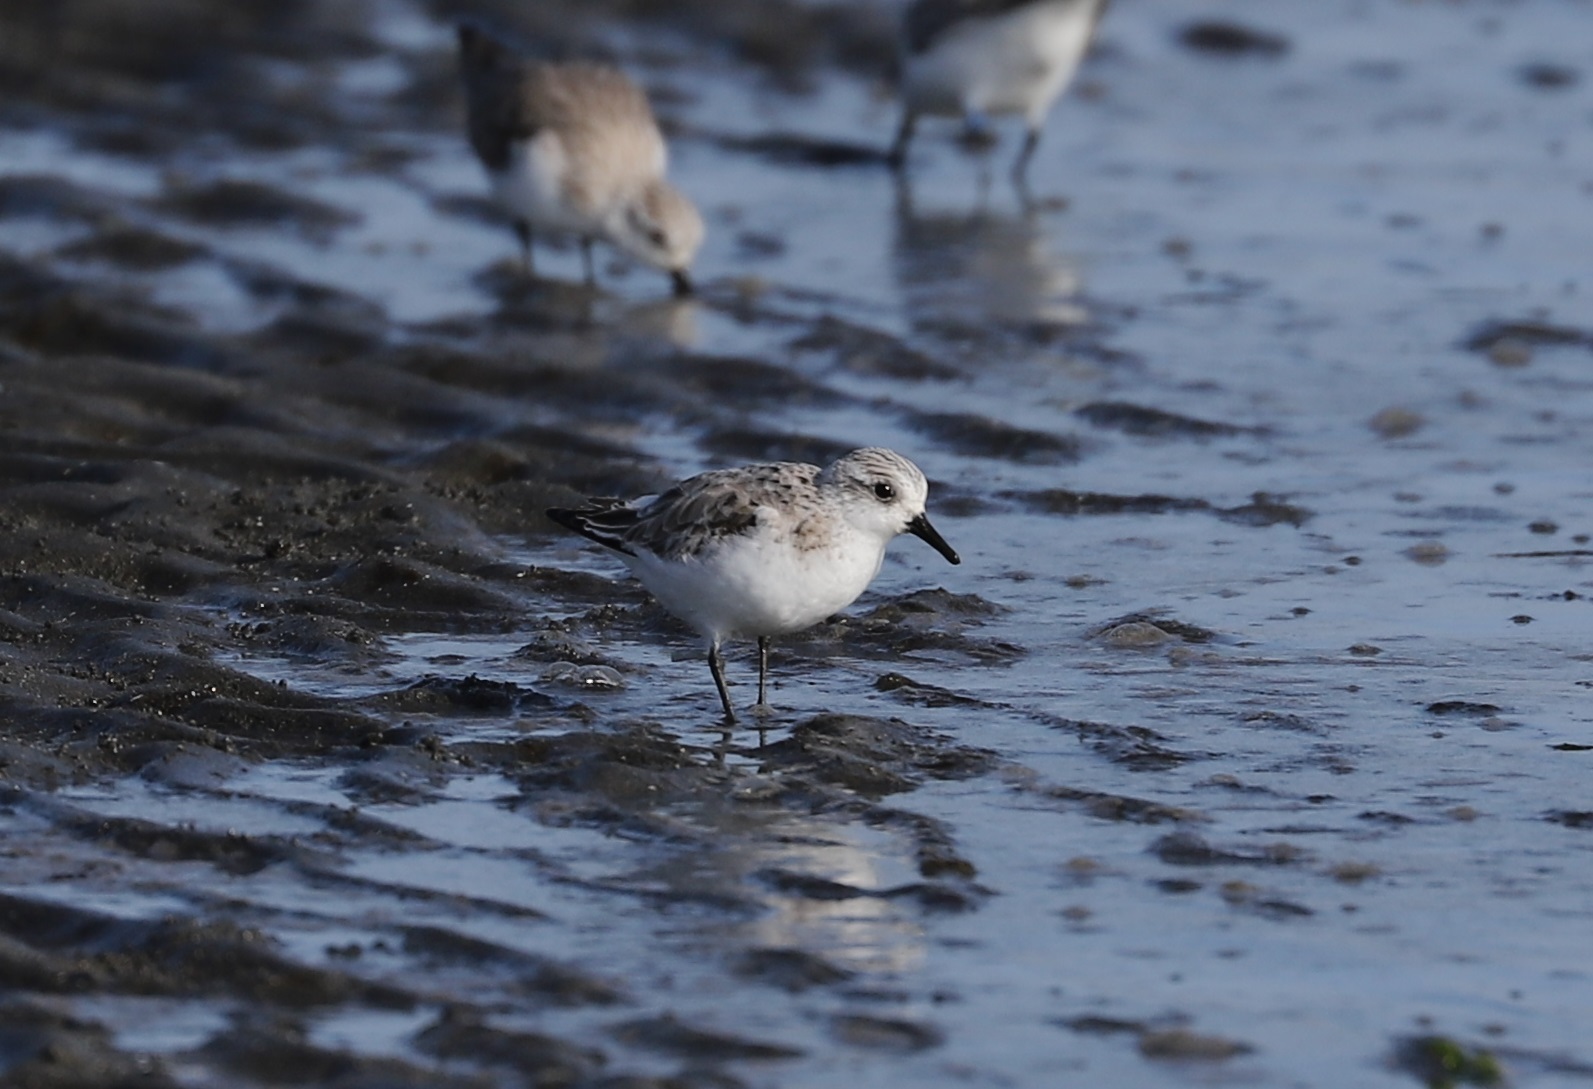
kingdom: Animalia
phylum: Chordata
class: Aves
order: Charadriiformes
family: Scolopacidae
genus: Calidris
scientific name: Calidris alba
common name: Sanderling
